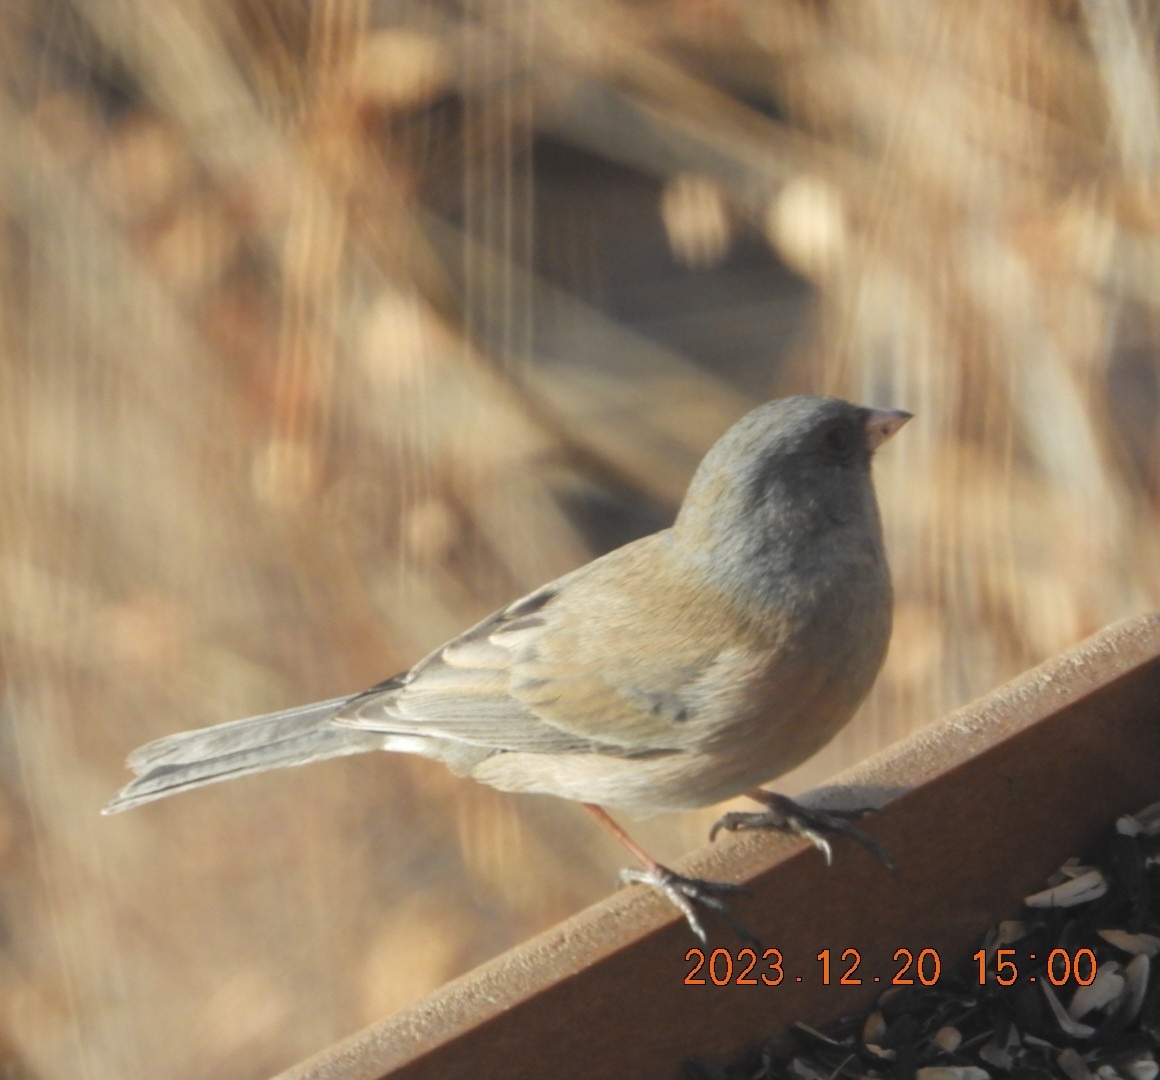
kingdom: Animalia
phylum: Chordata
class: Aves
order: Passeriformes
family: Passerellidae
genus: Junco
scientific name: Junco hyemalis
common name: Dark-eyed junco
